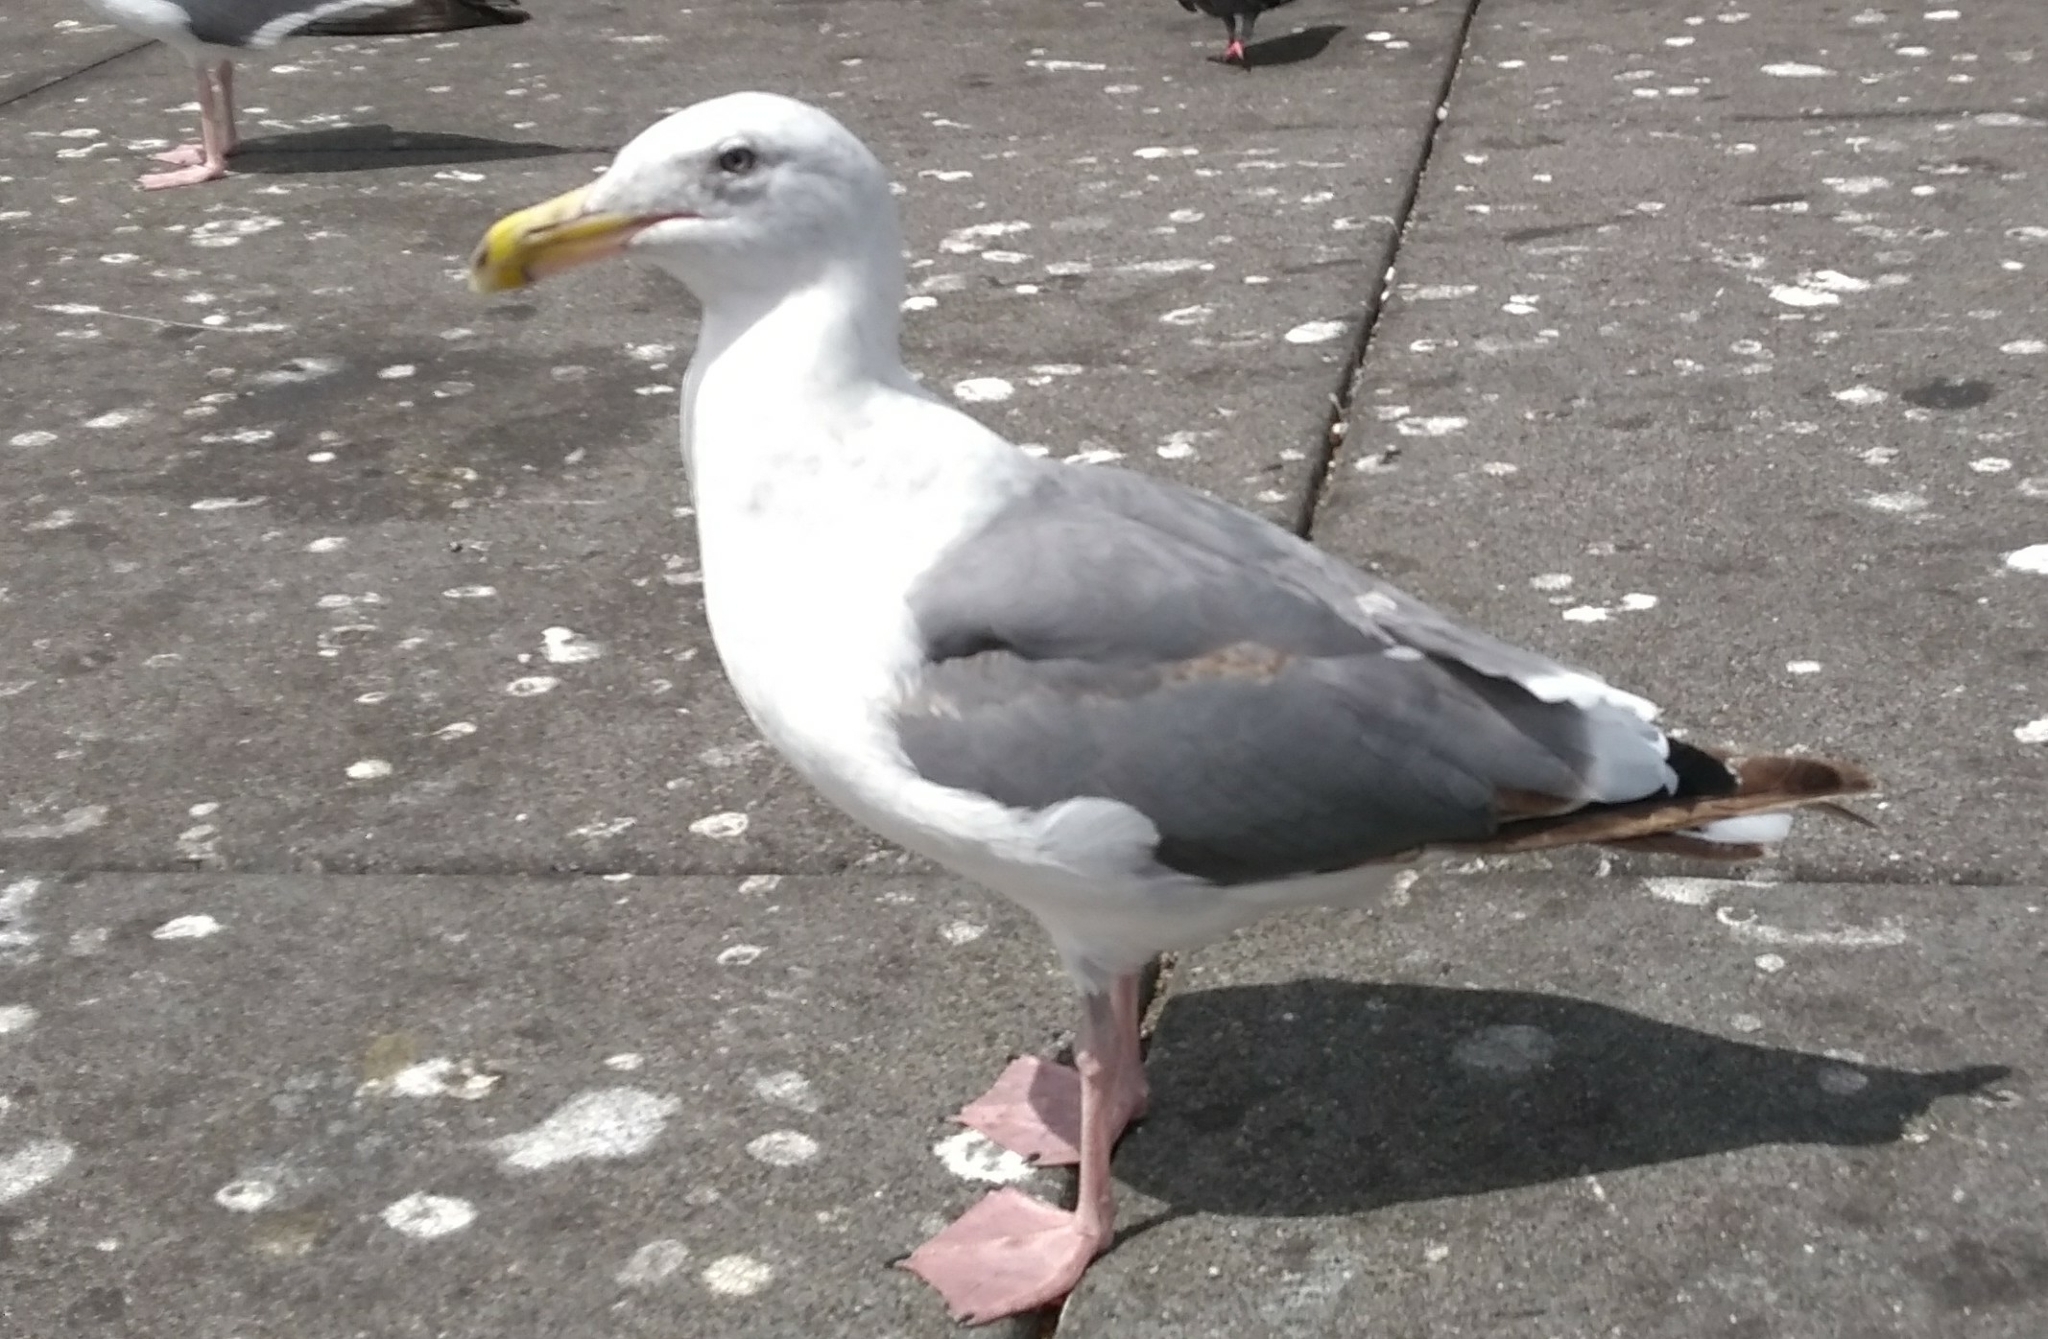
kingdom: Animalia
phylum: Chordata
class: Aves
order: Charadriiformes
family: Laridae
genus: Larus
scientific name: Larus occidentalis
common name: Western gull
